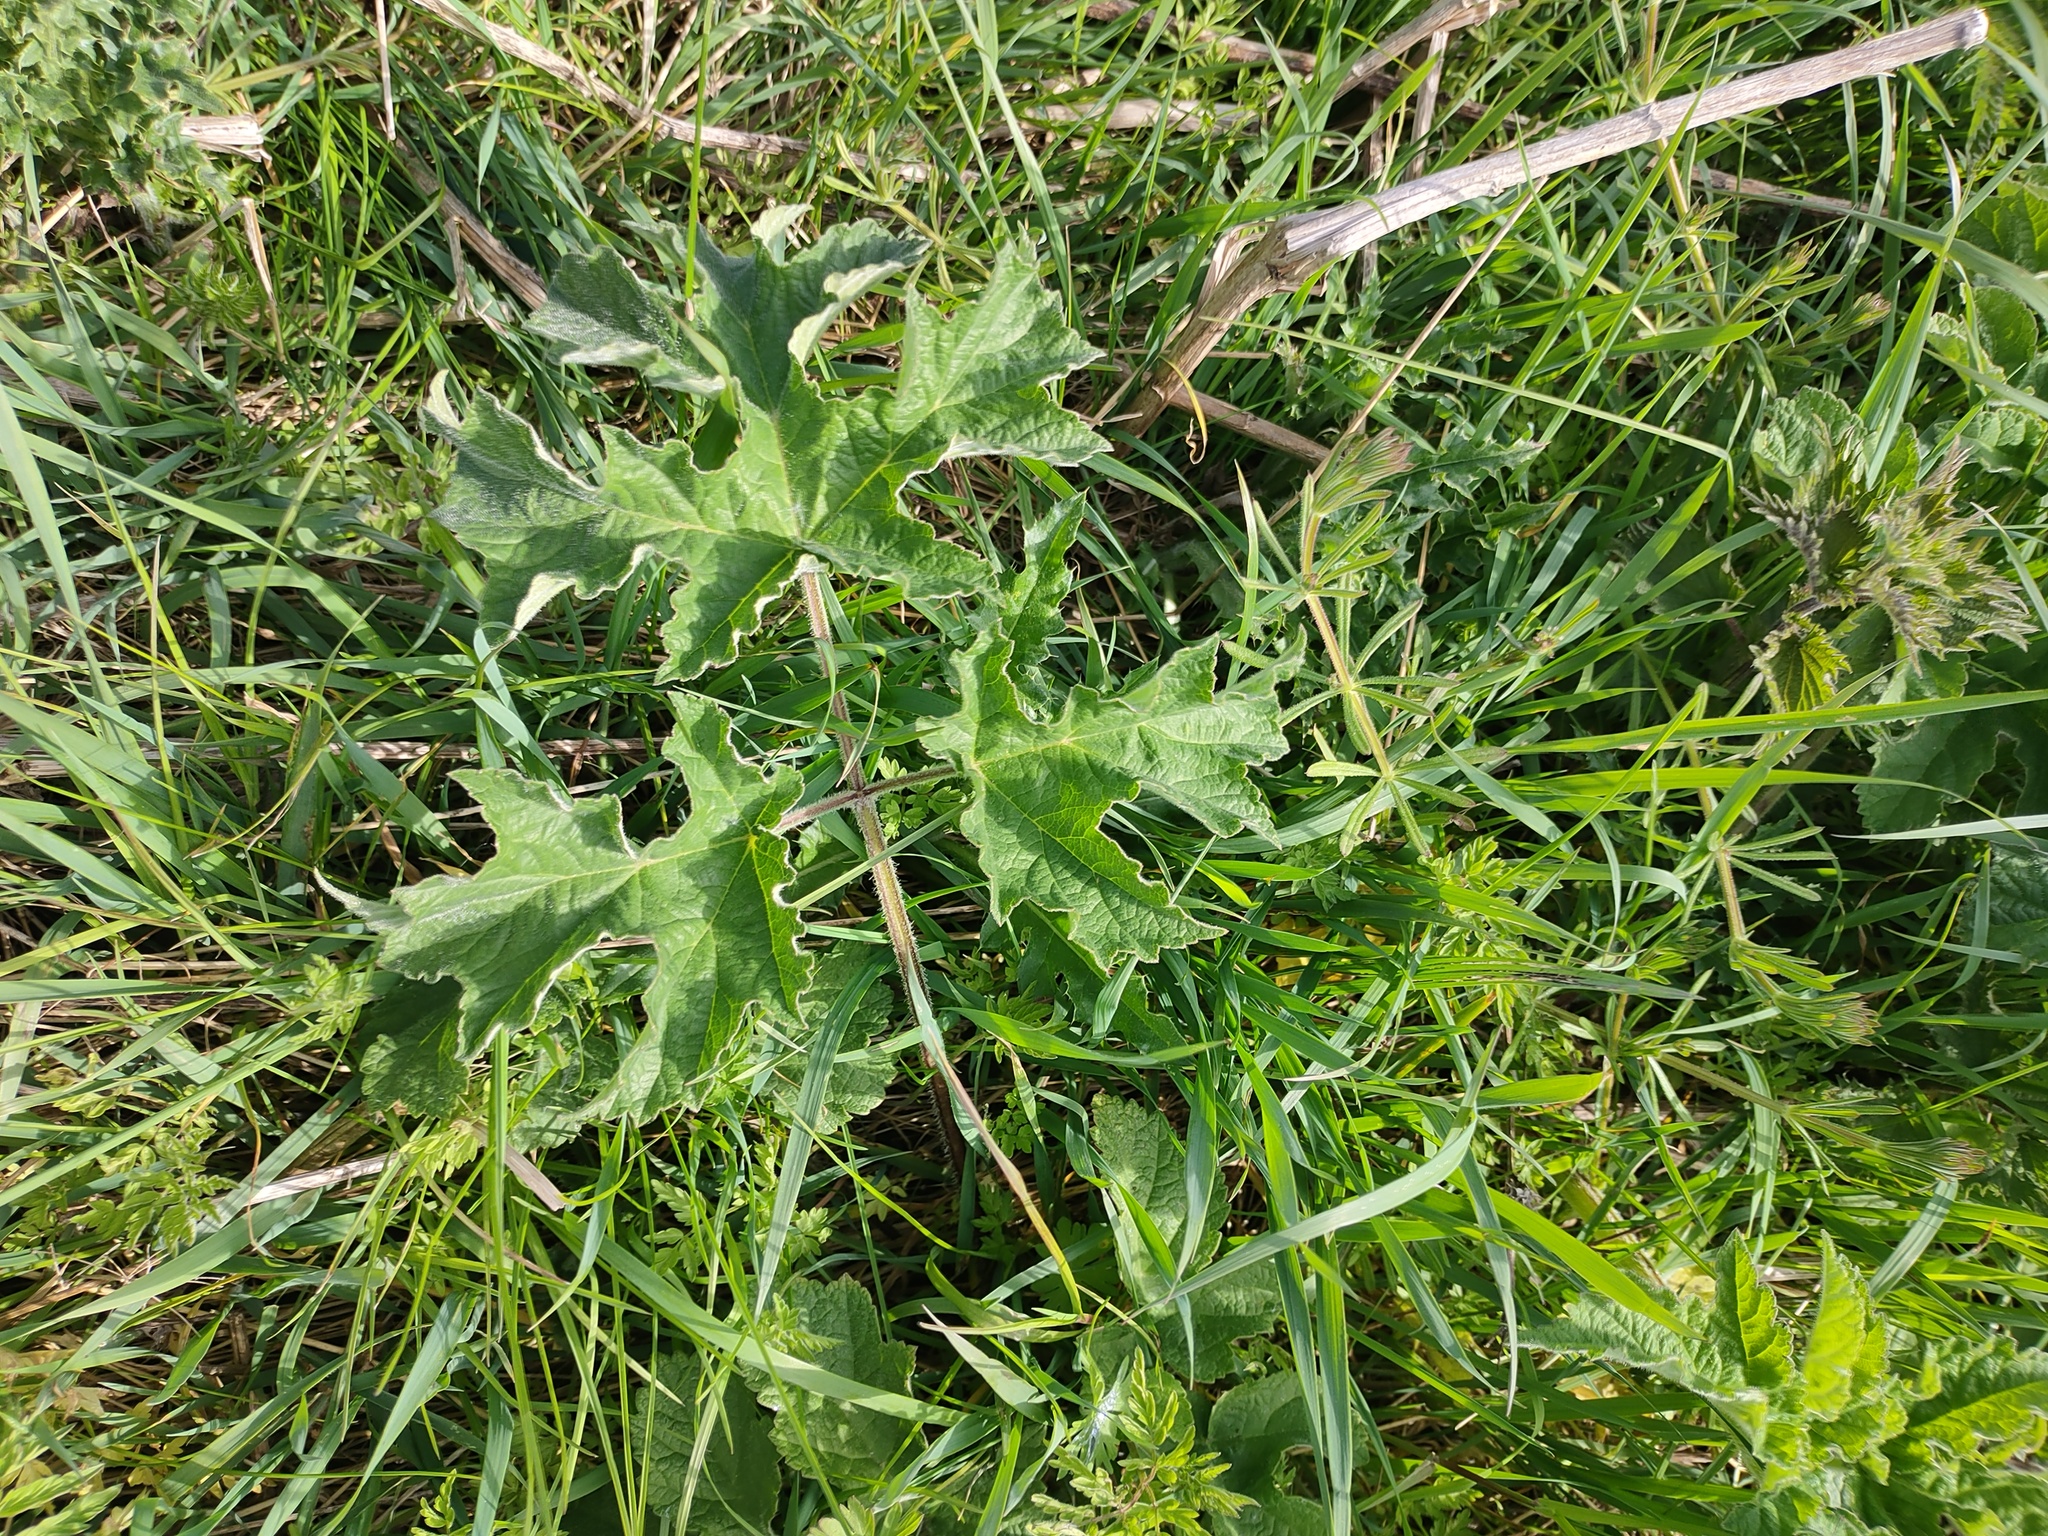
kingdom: Plantae
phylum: Tracheophyta
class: Magnoliopsida
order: Apiales
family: Apiaceae
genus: Heracleum
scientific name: Heracleum sphondylium
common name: Hogweed
